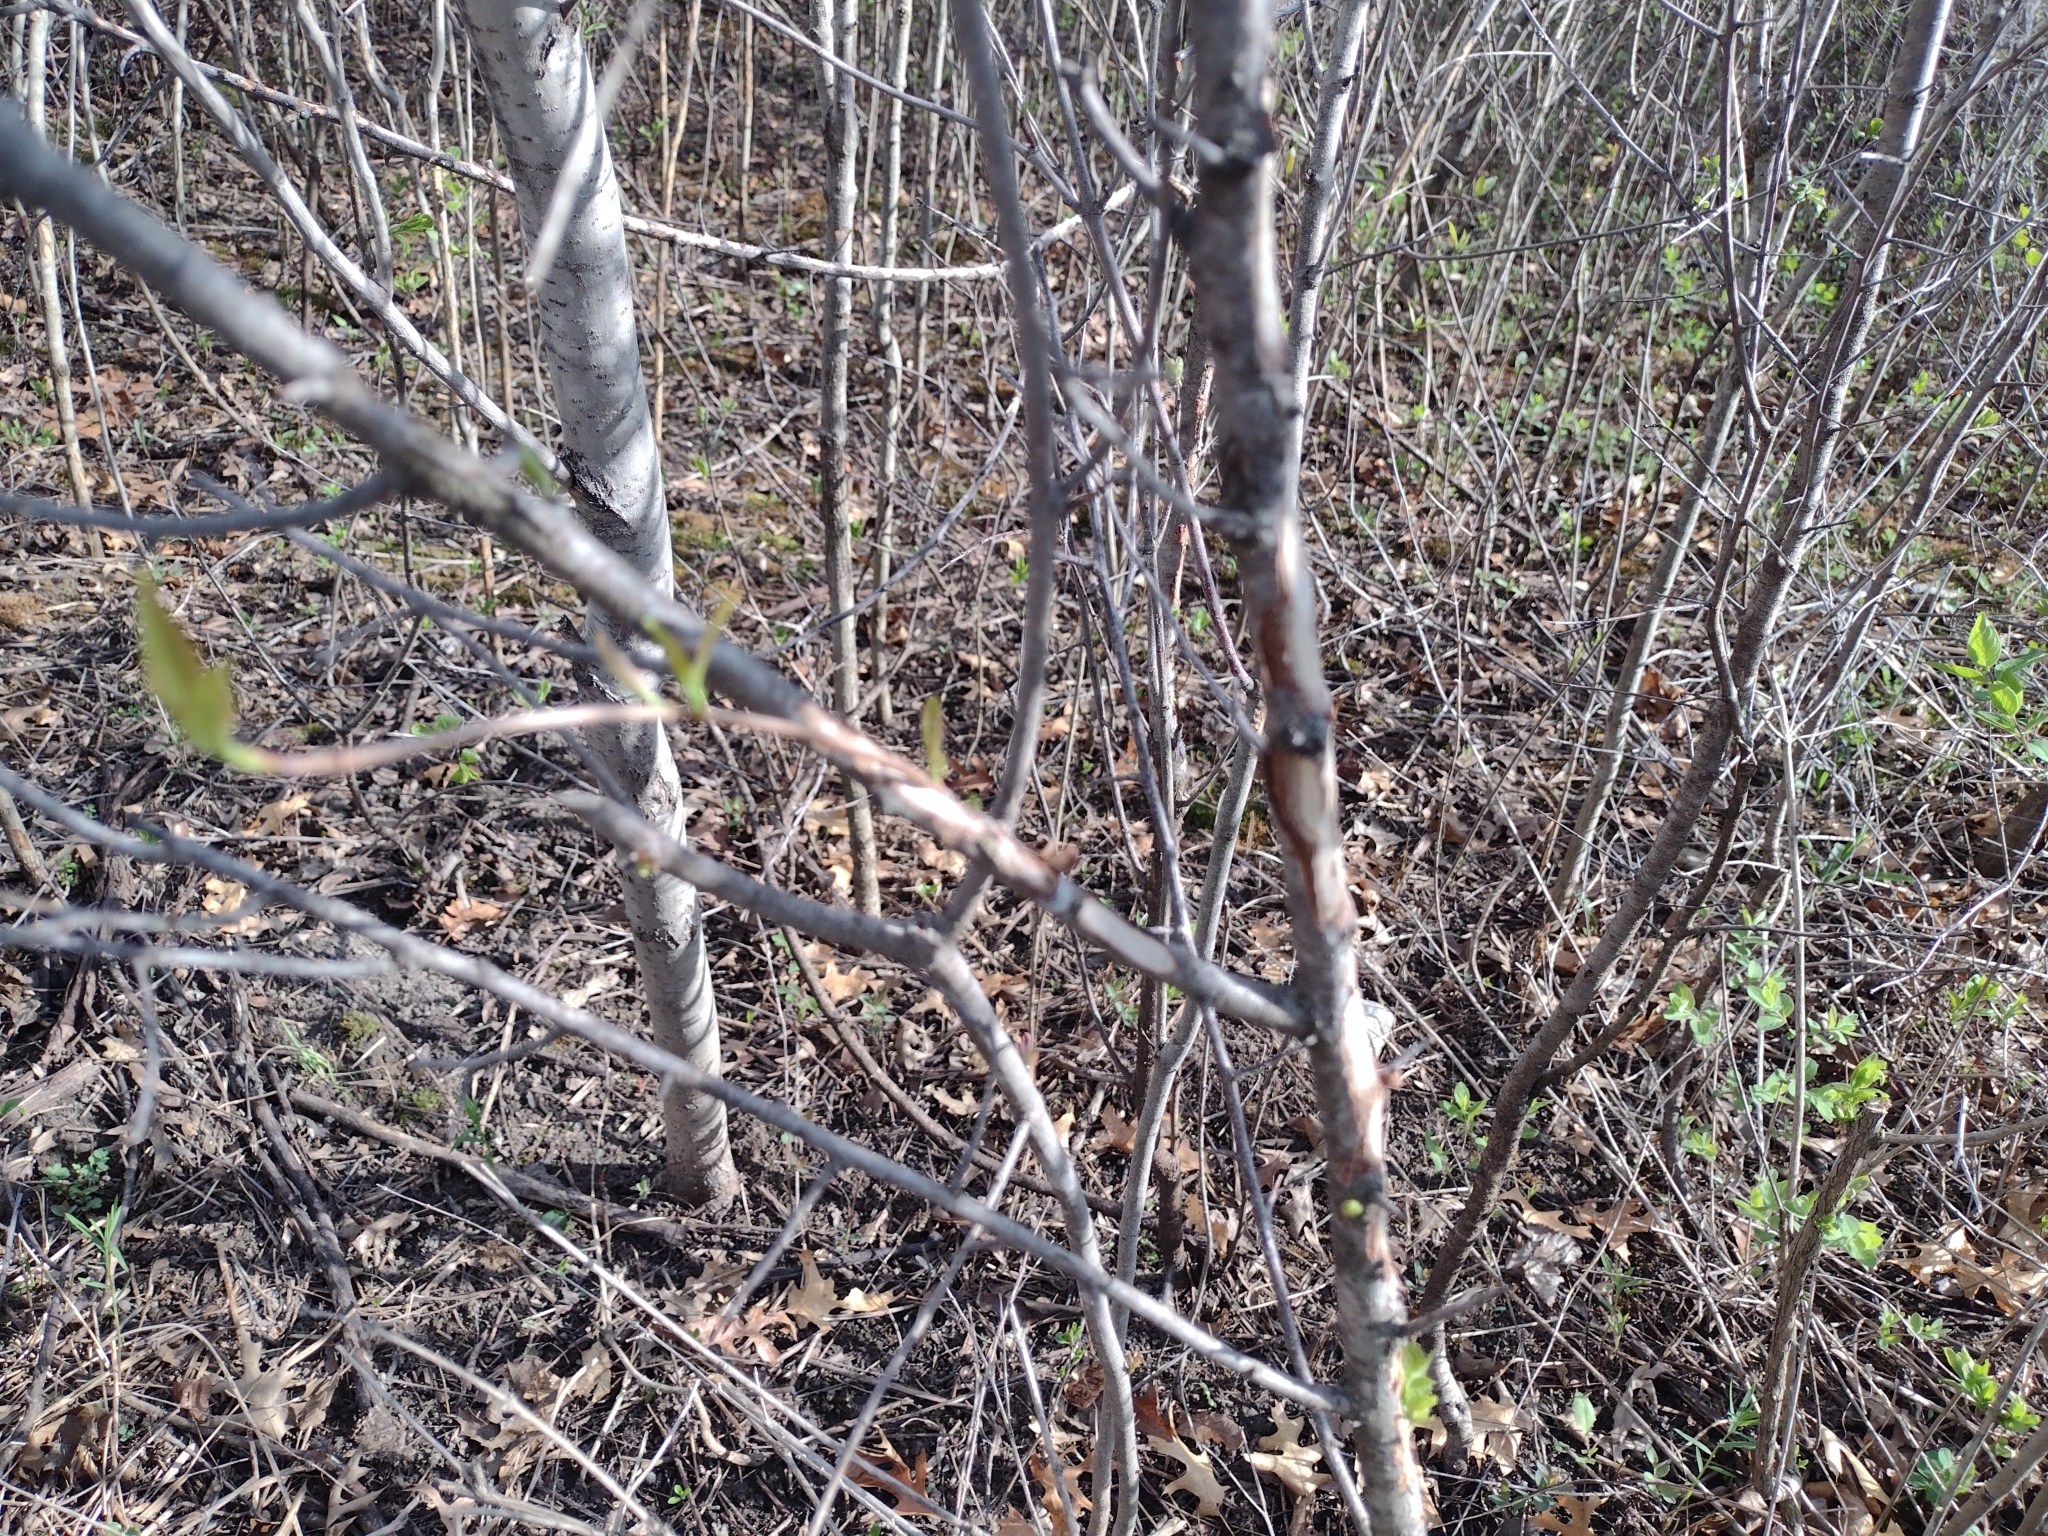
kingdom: Plantae
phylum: Tracheophyta
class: Magnoliopsida
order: Rosales
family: Rosaceae
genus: Prunus
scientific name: Prunus americana
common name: American plum
